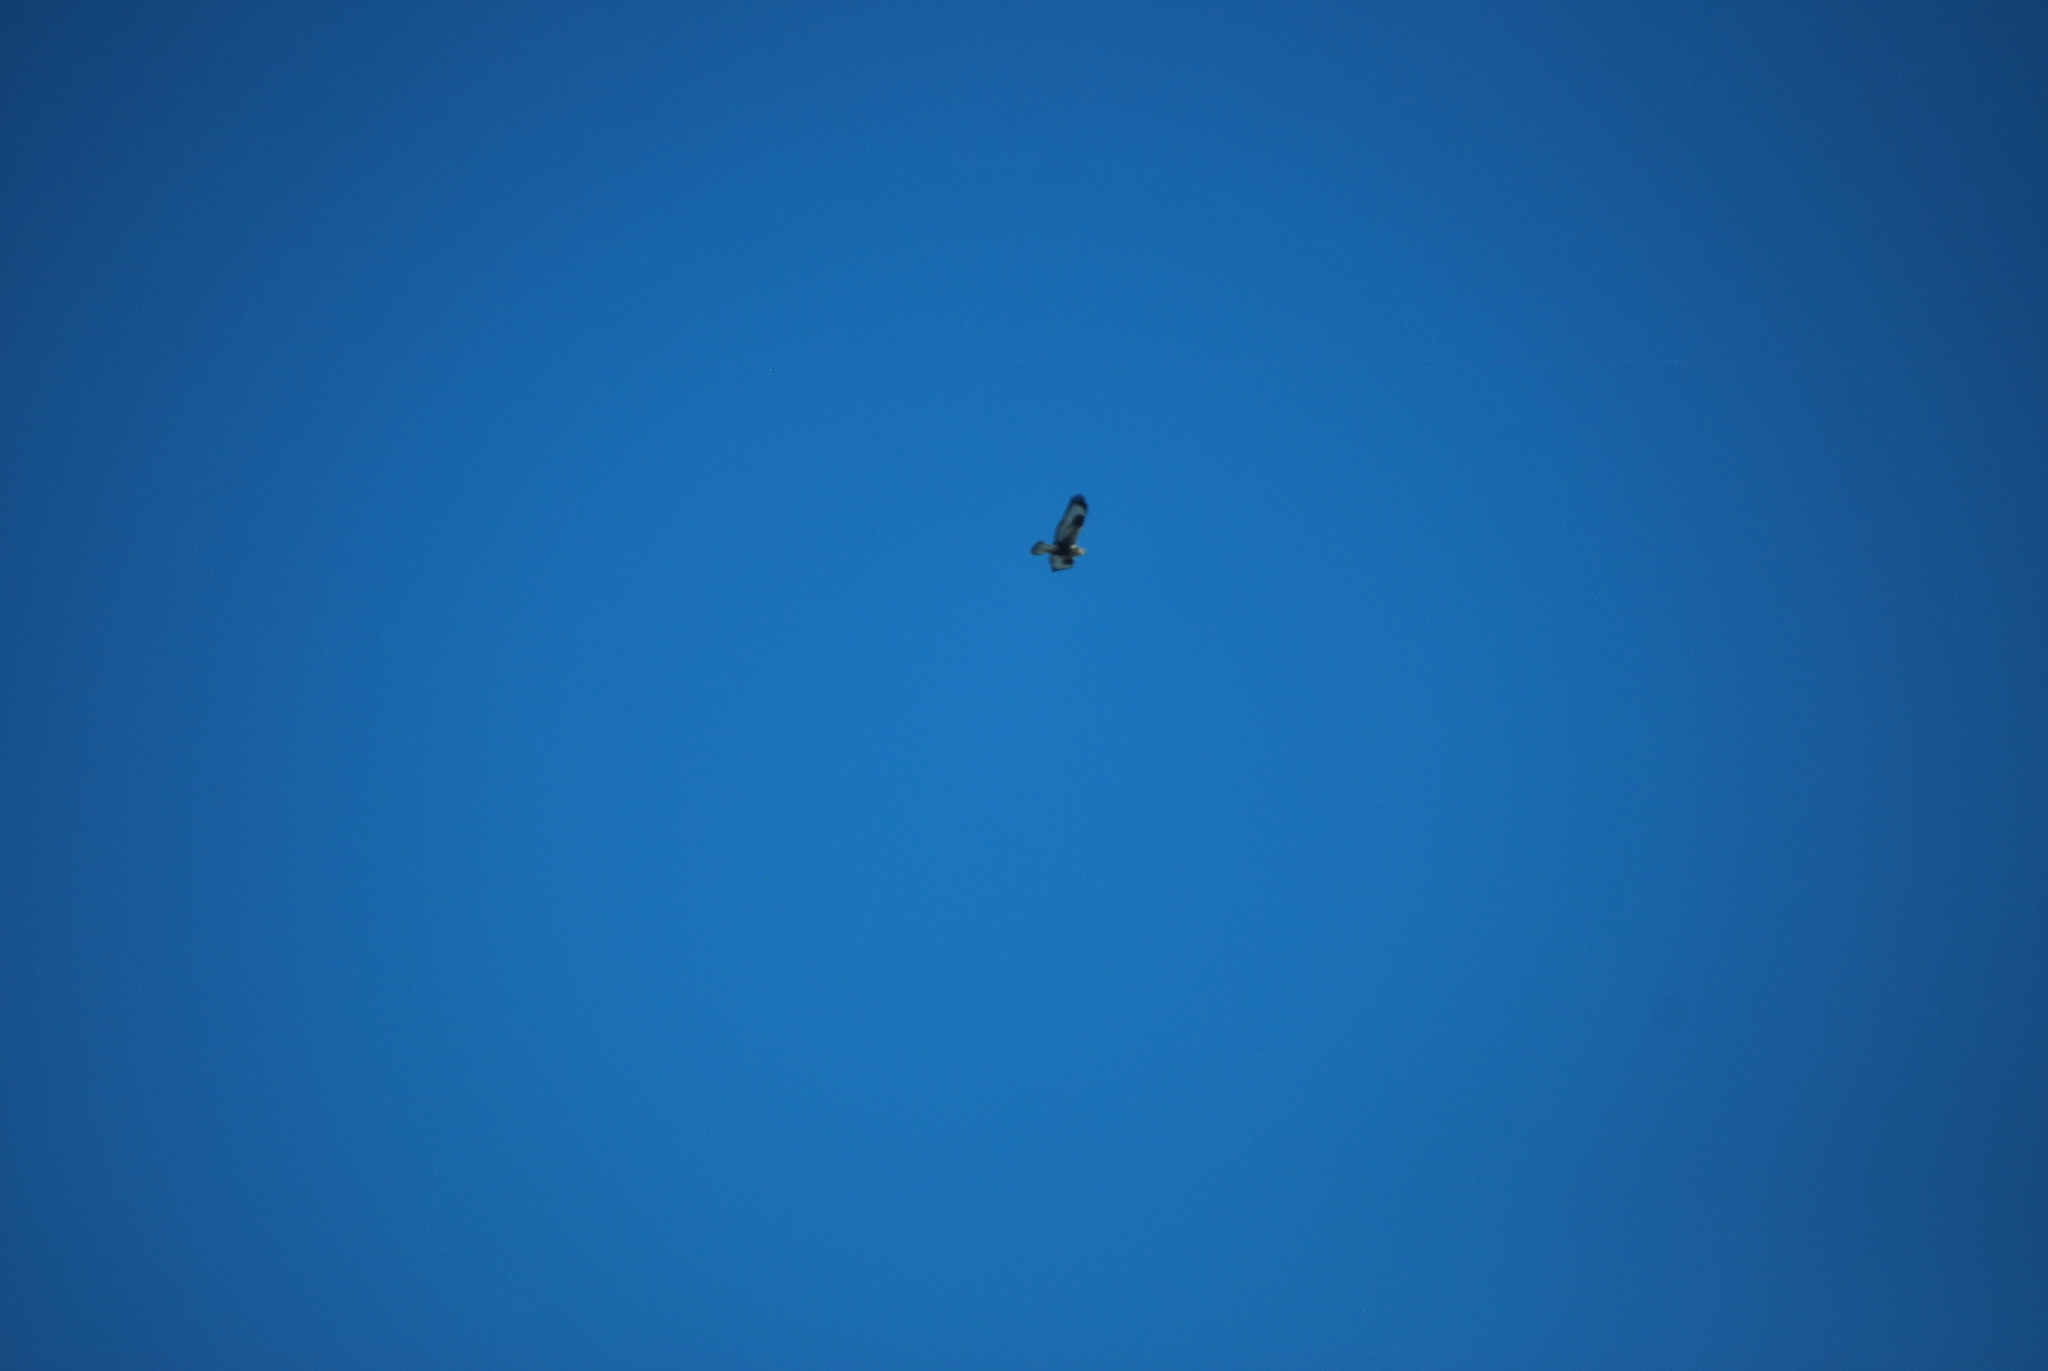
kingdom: Animalia
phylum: Chordata
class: Aves
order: Accipitriformes
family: Accipitridae
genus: Buteo
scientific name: Buteo lagopus
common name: Rough-legged buzzard
